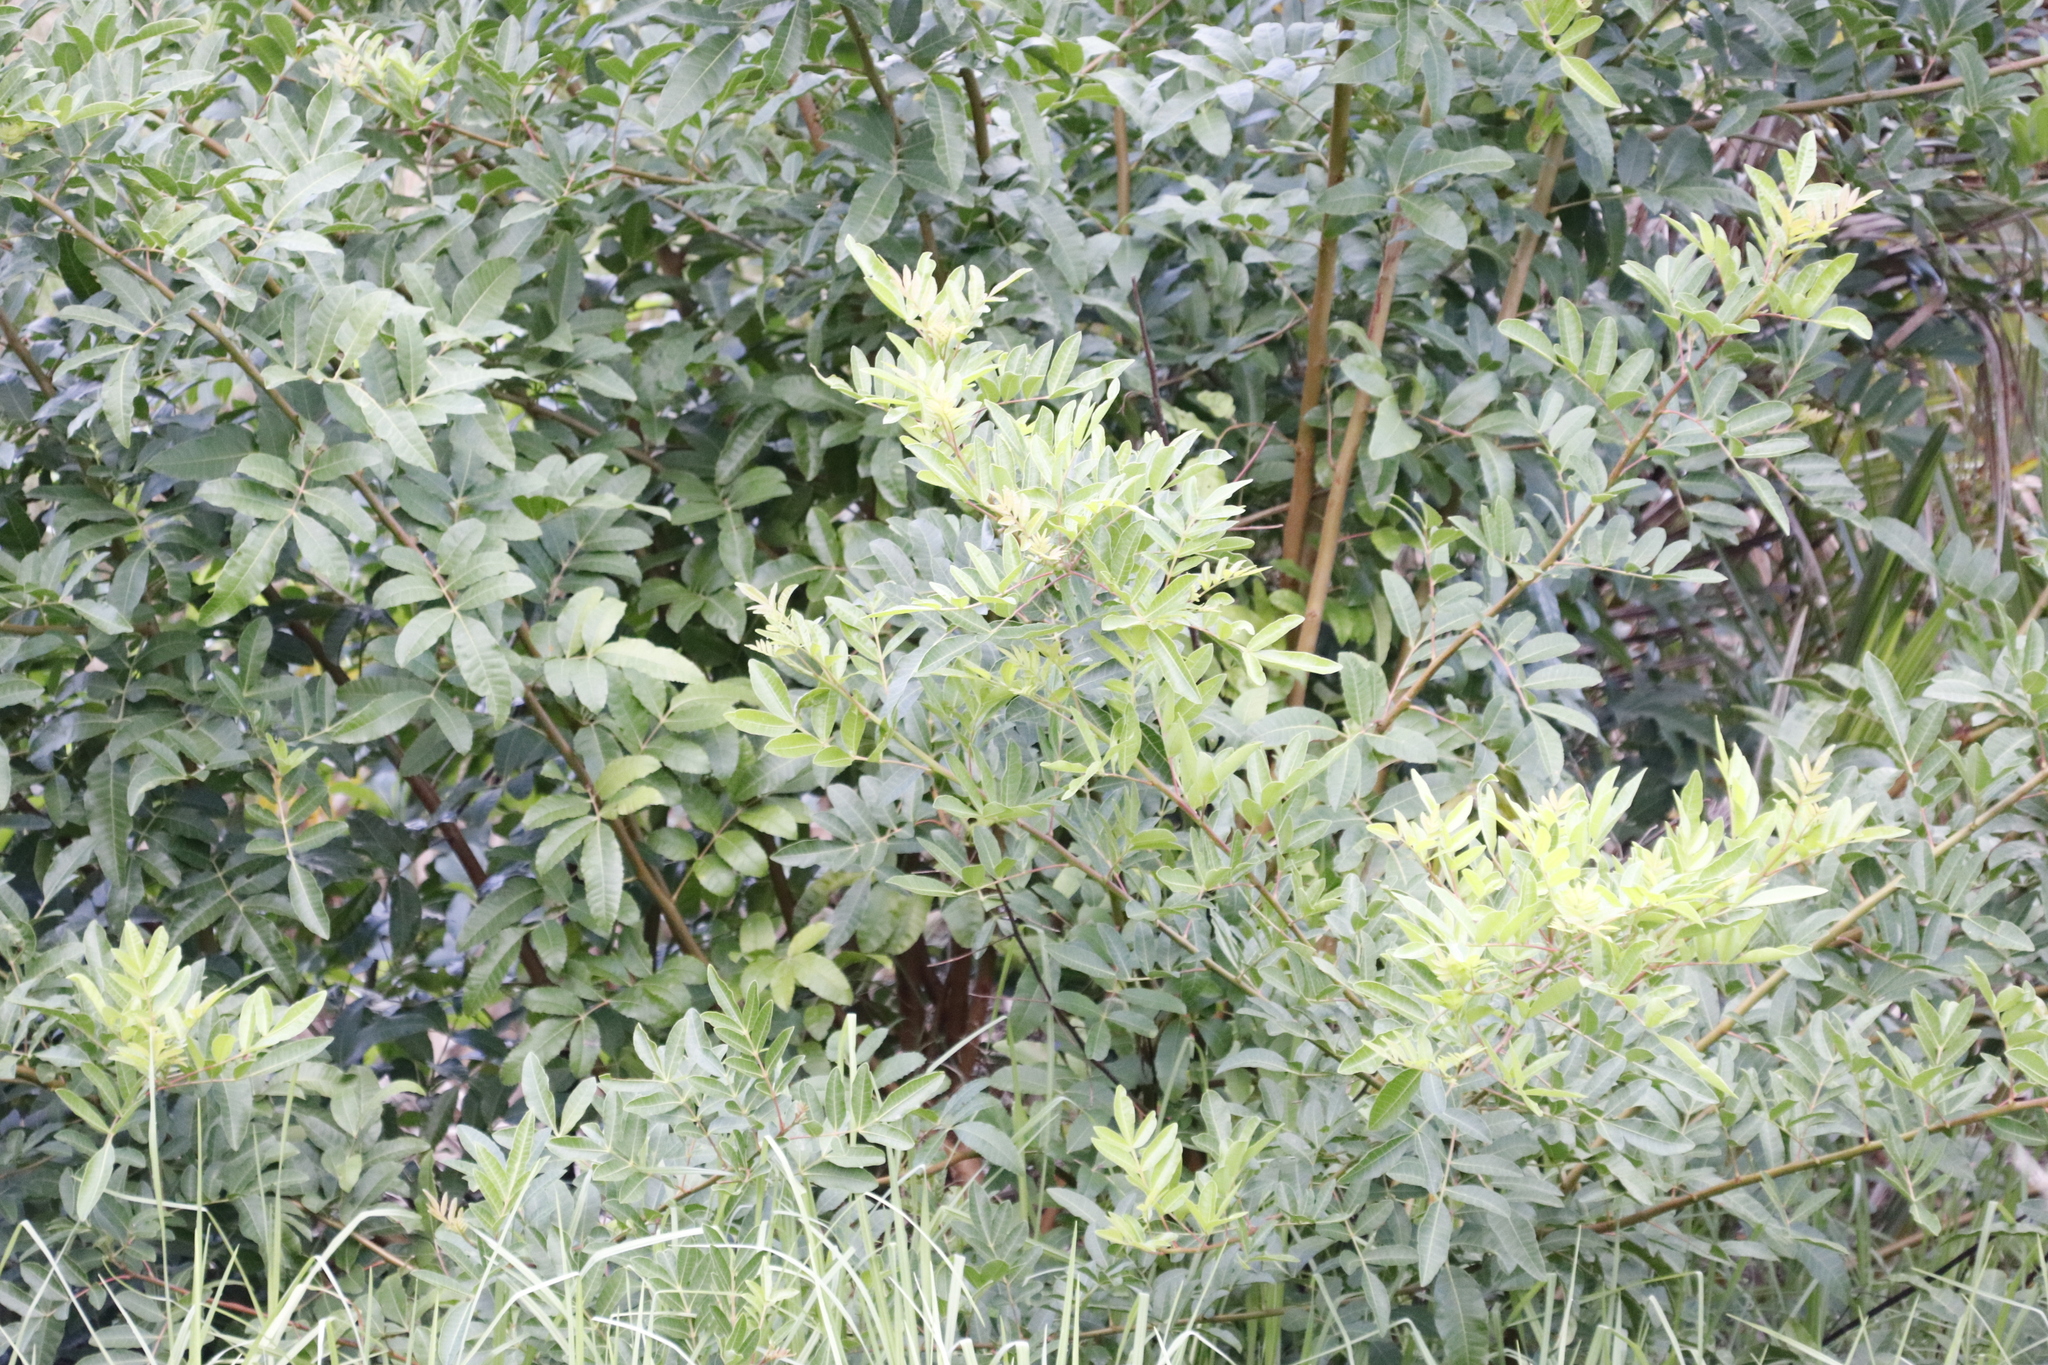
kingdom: Plantae
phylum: Tracheophyta
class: Magnoliopsida
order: Sapindales
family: Anacardiaceae
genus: Schinus
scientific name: Schinus terebinthifolia
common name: Brazilian peppertree
